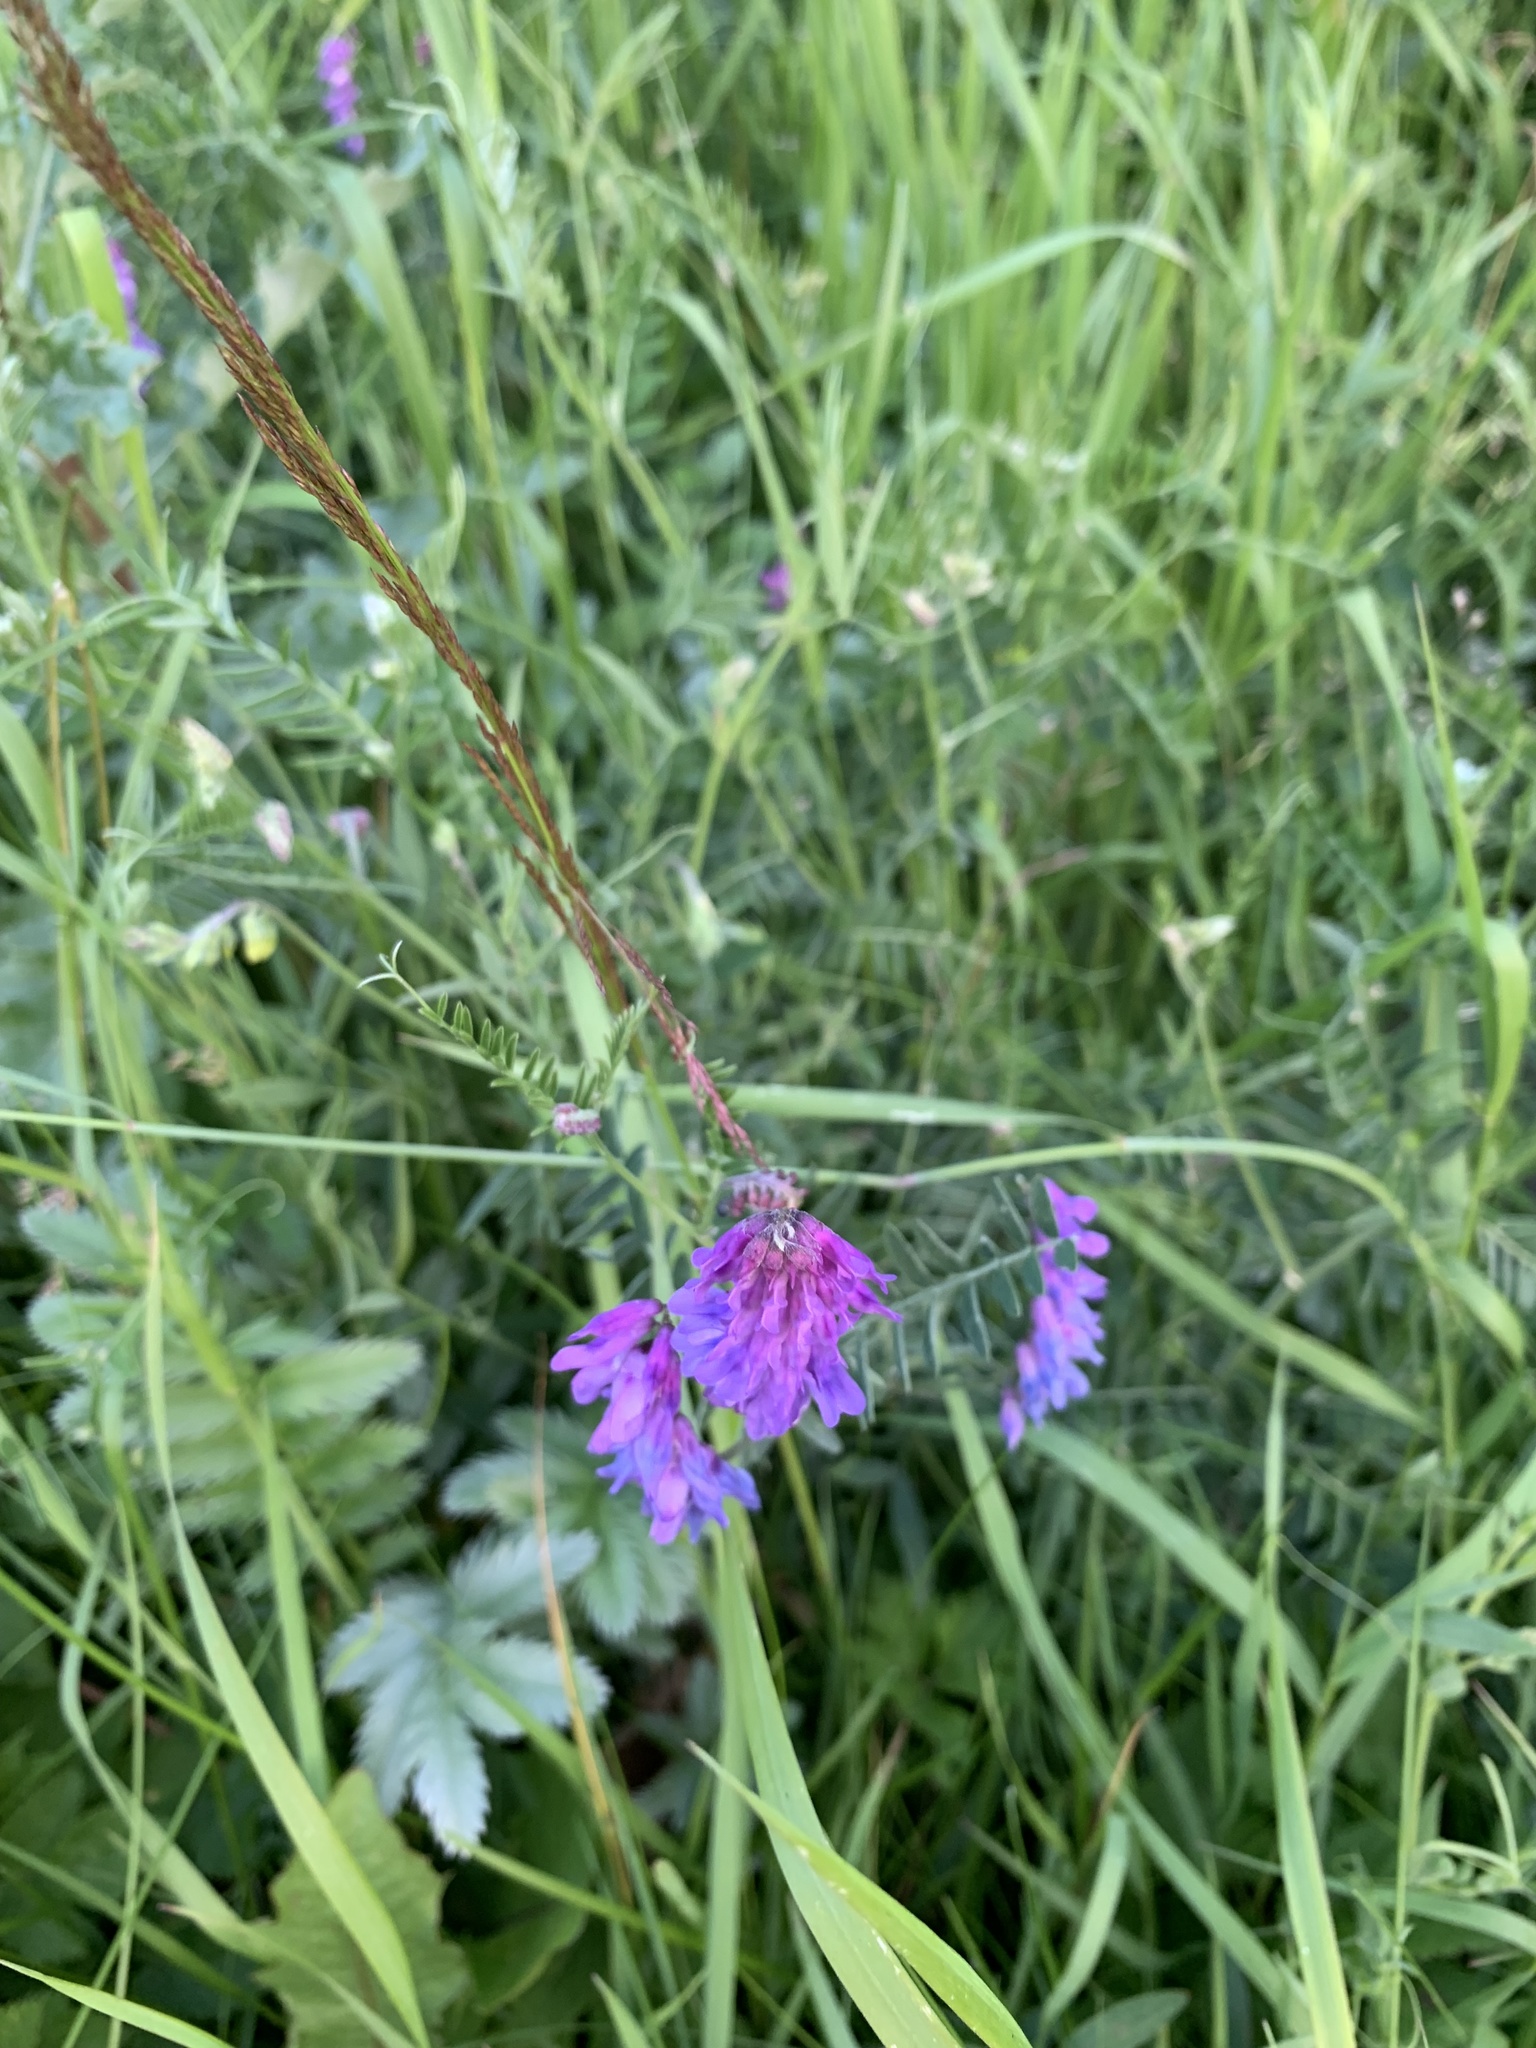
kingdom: Plantae
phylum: Tracheophyta
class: Magnoliopsida
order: Fabales
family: Fabaceae
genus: Vicia
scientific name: Vicia cracca
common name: Bird vetch
